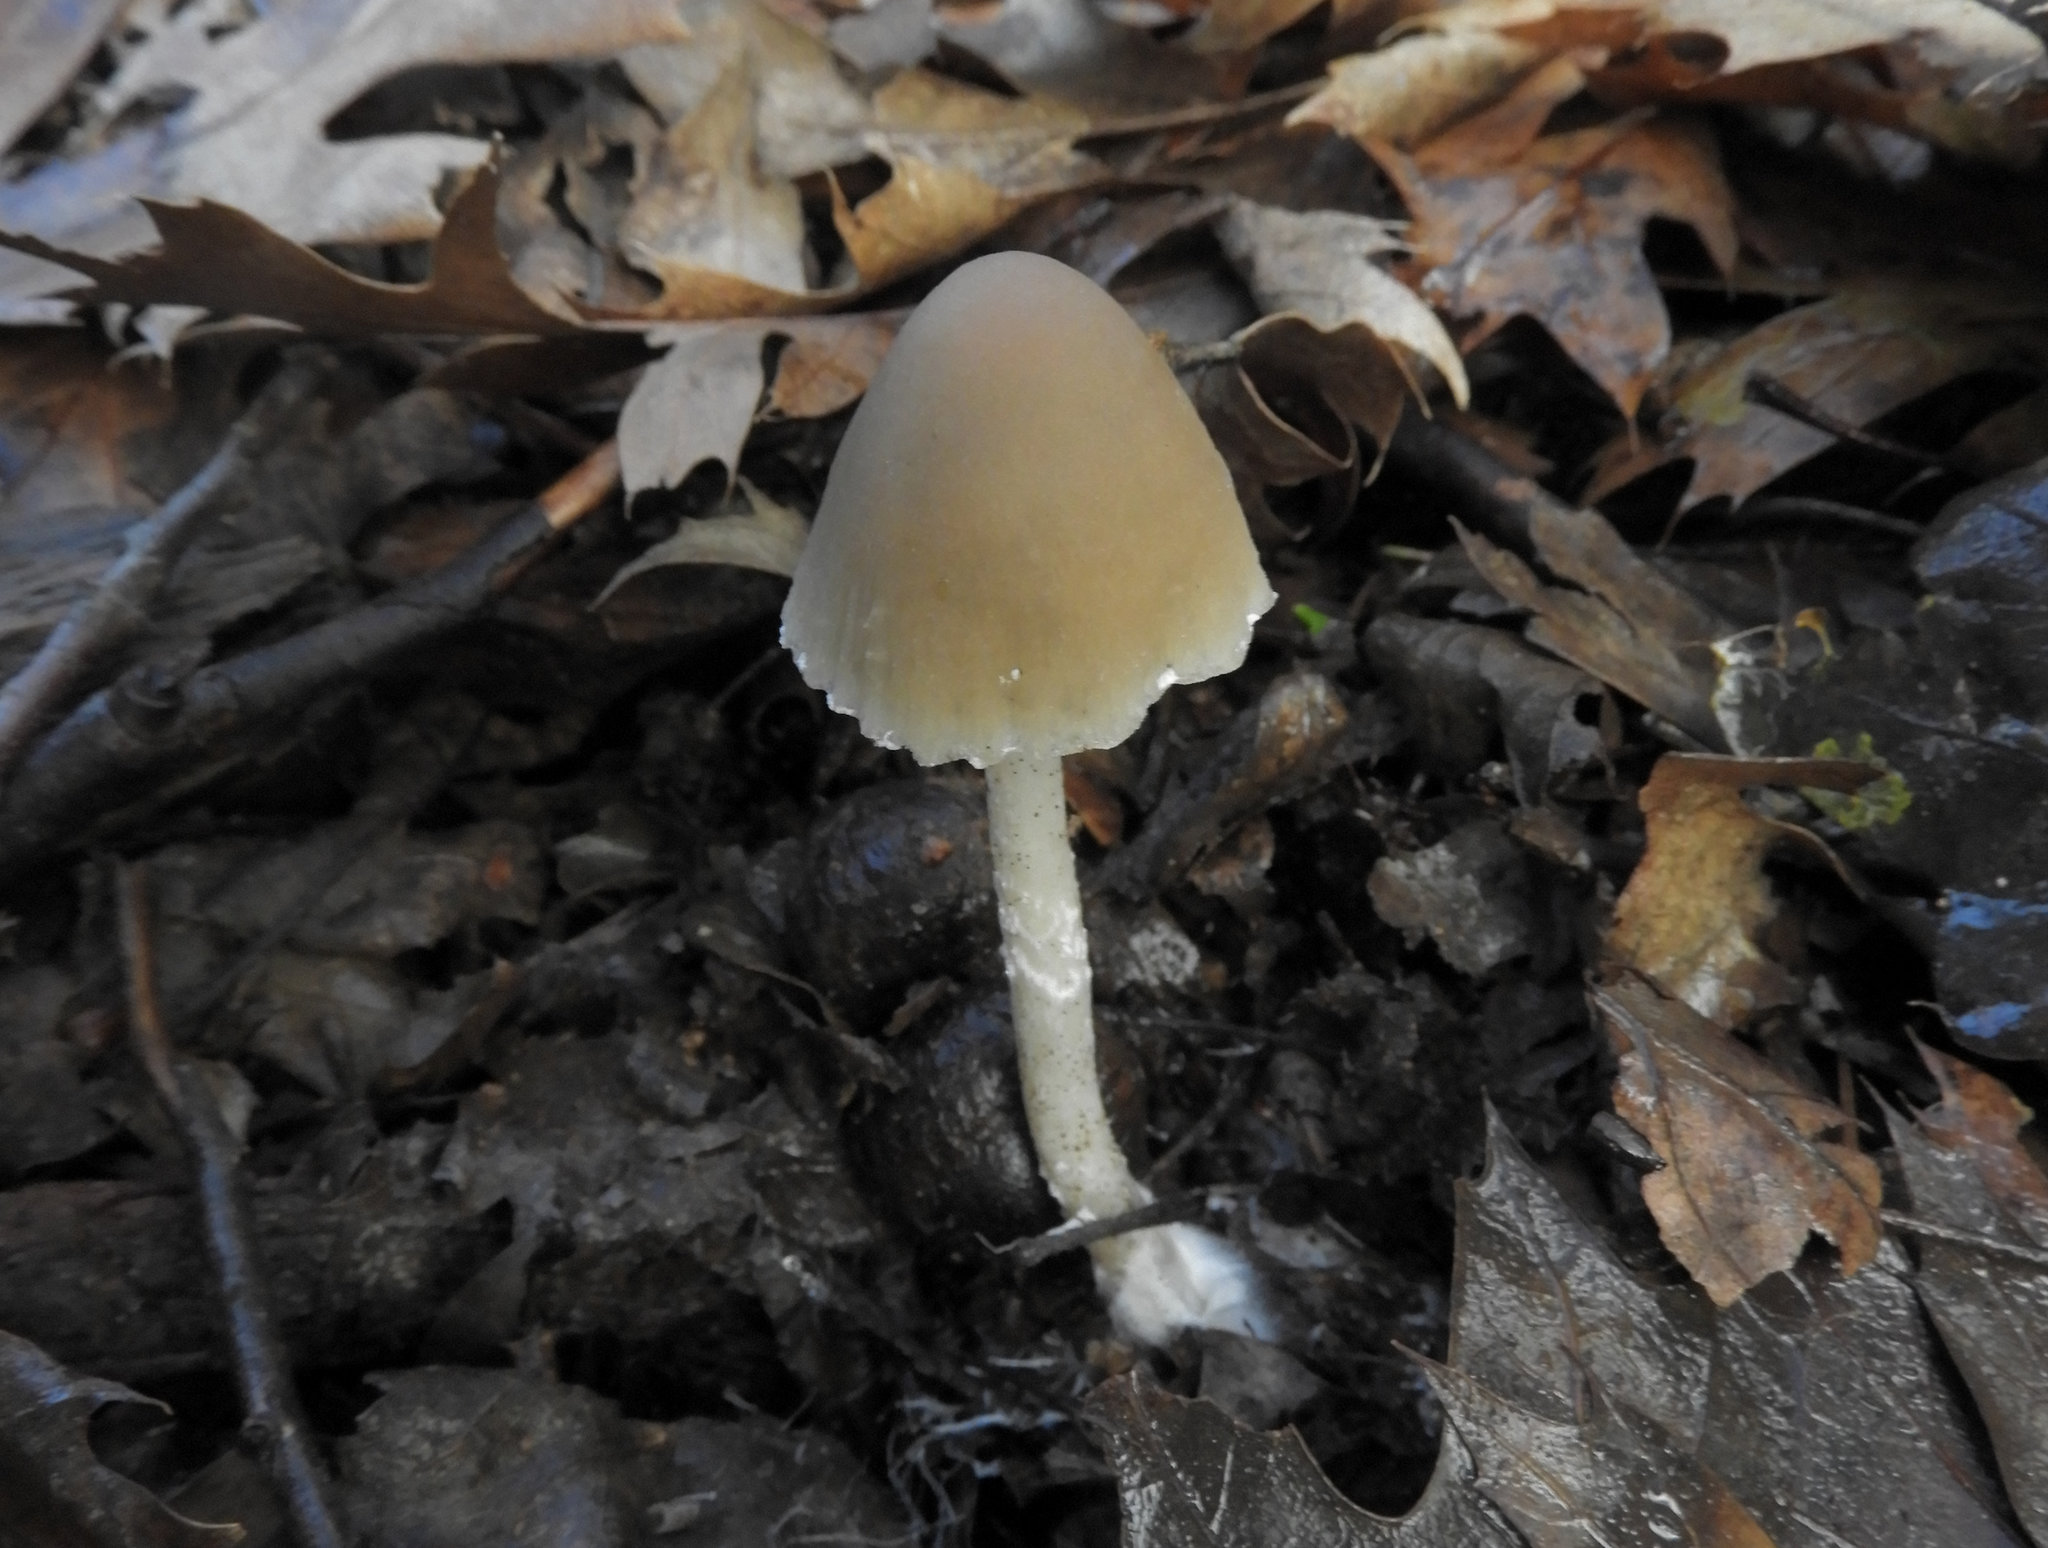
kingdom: Fungi
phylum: Basidiomycota
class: Agaricomycetes
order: Agaricales
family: Psathyrellaceae
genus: Psathyrella
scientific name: Psathyrella longipes
